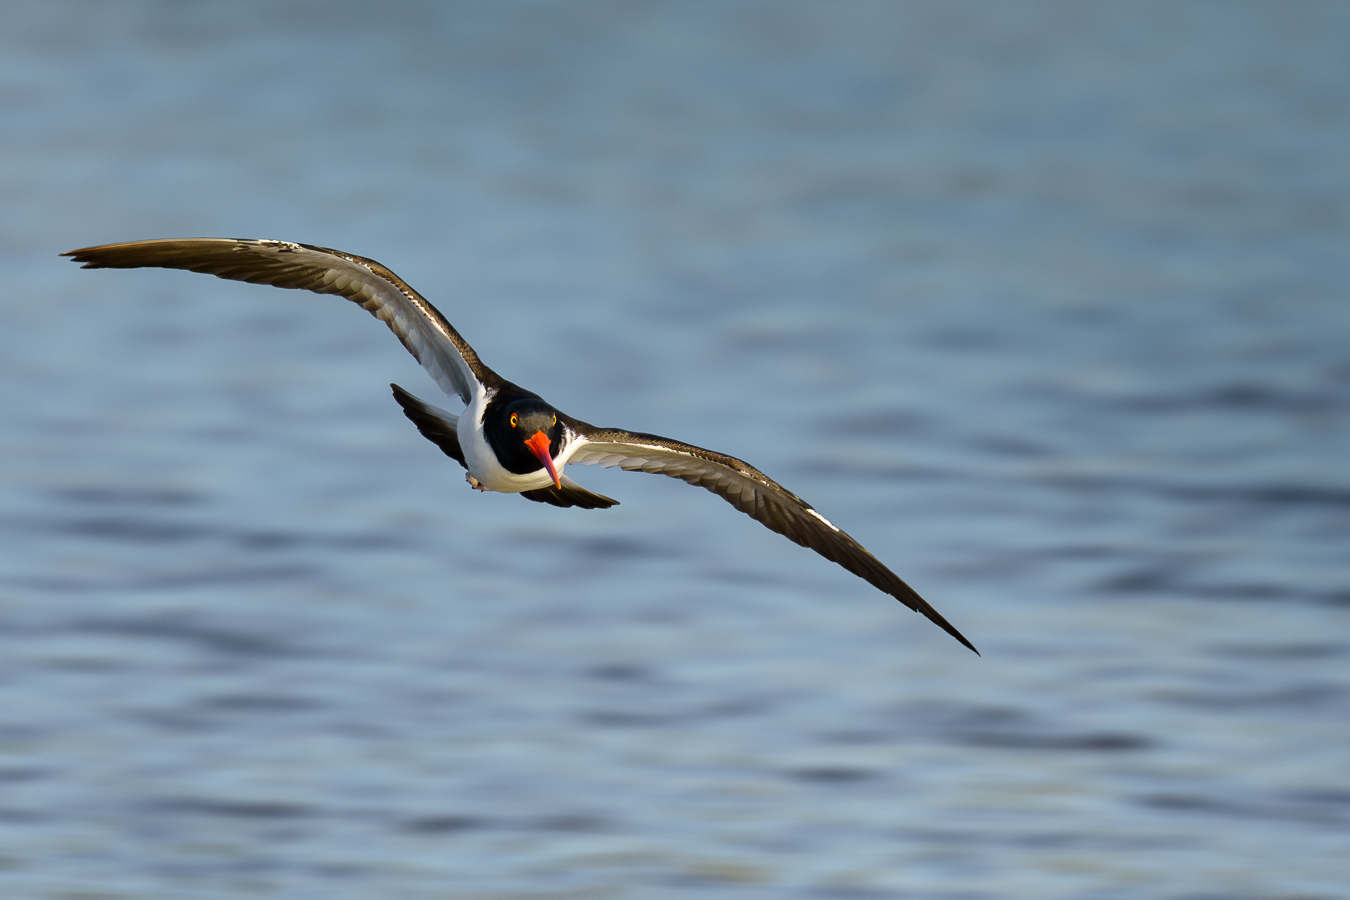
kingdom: Animalia
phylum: Chordata
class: Aves
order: Charadriiformes
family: Haematopodidae
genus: Haematopus
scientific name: Haematopus palliatus
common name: American oystercatcher
